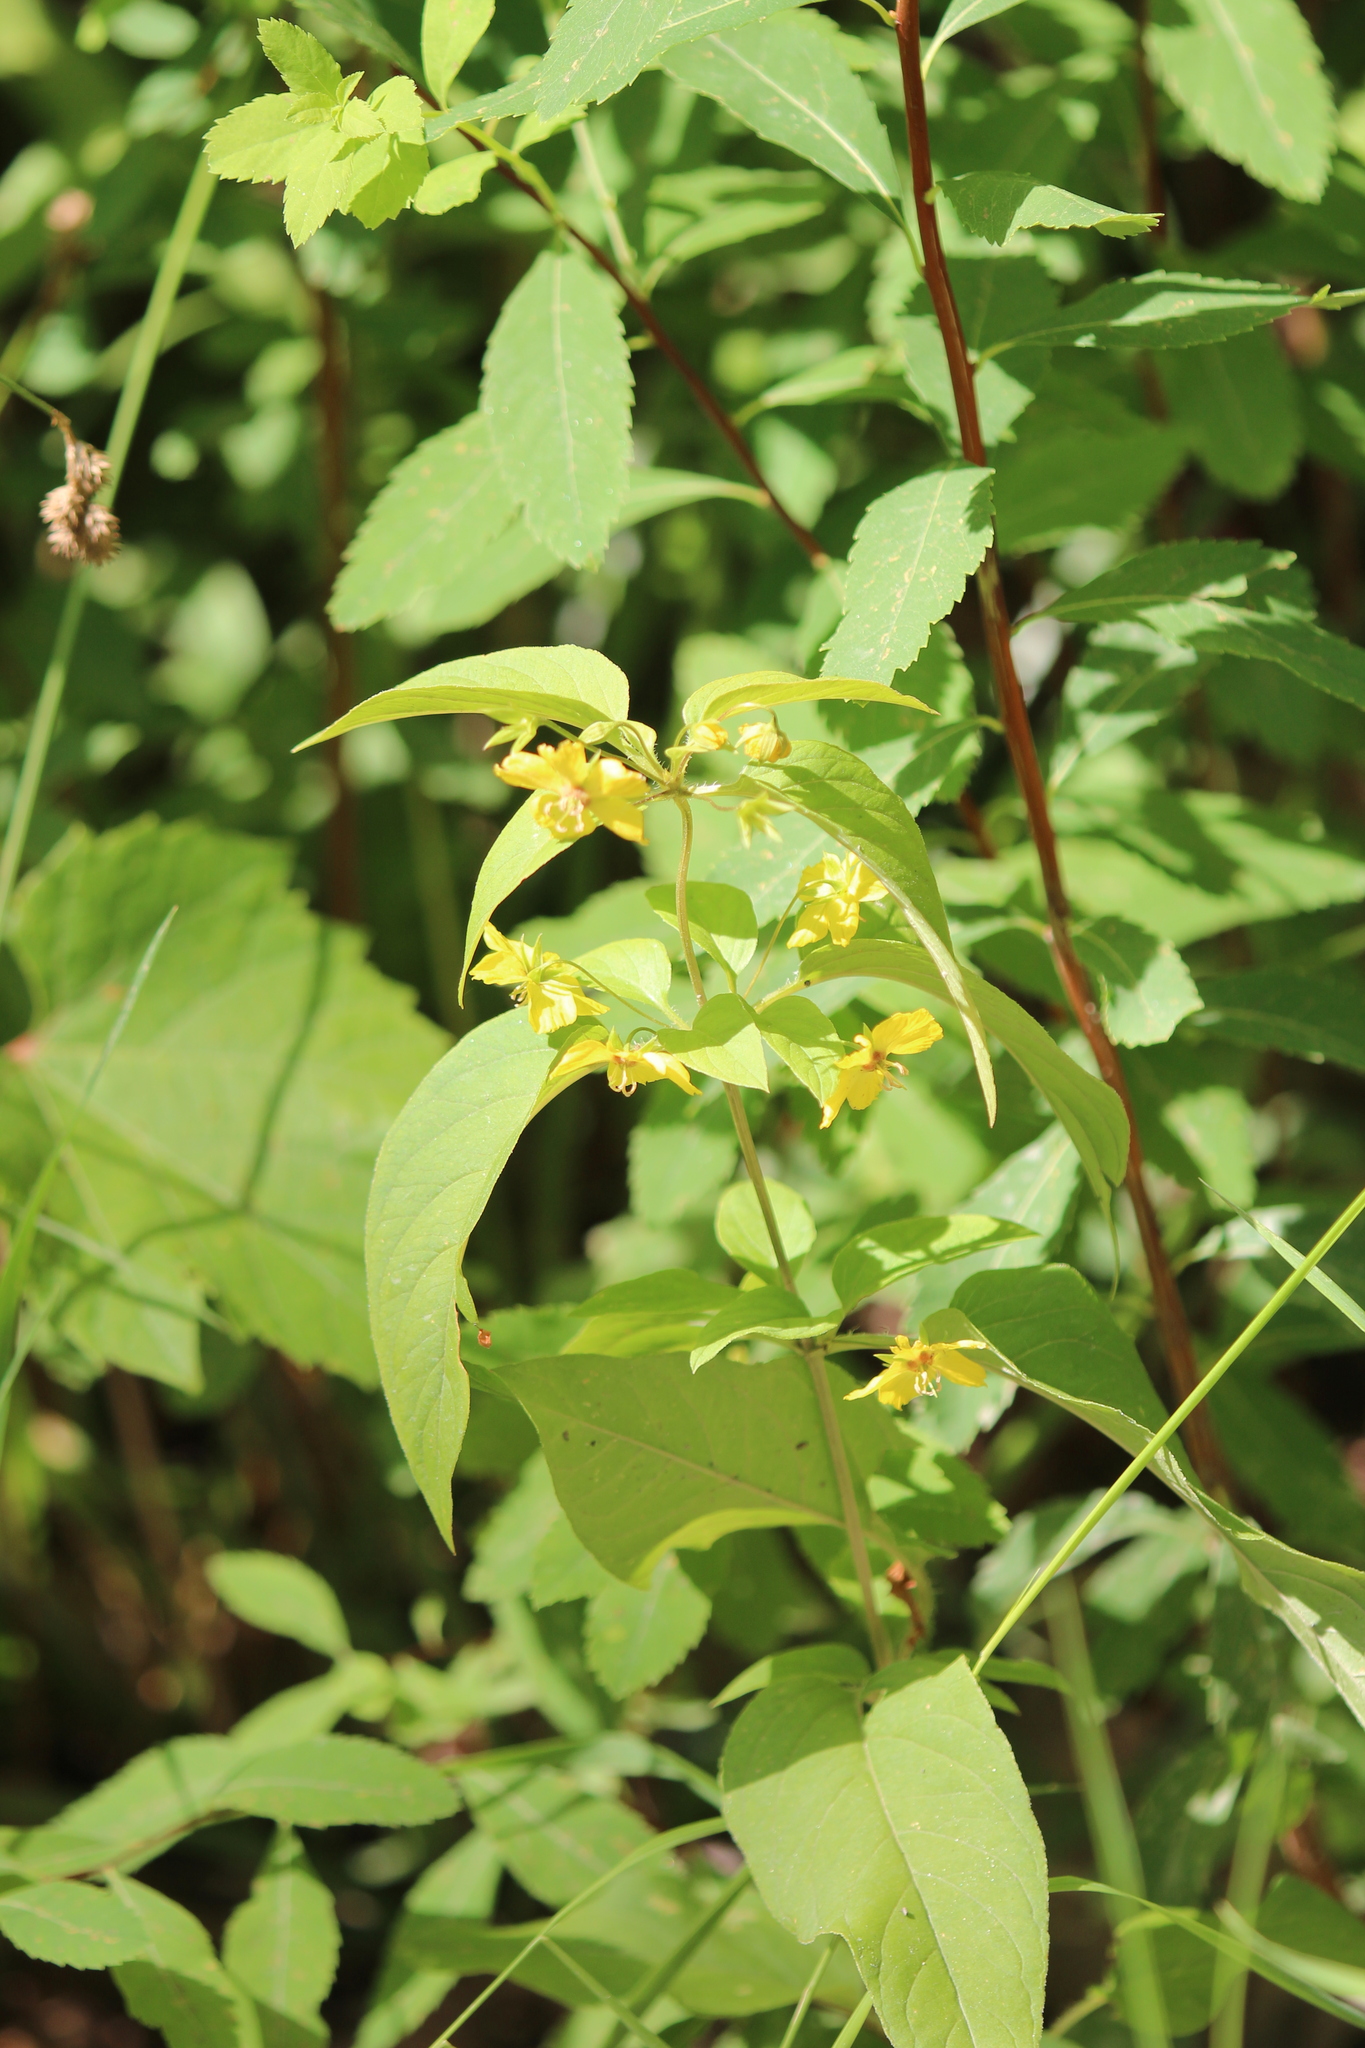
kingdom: Plantae
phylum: Tracheophyta
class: Magnoliopsida
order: Ericales
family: Primulaceae
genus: Lysimachia
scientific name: Lysimachia ciliata
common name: Fringed loosestrife
